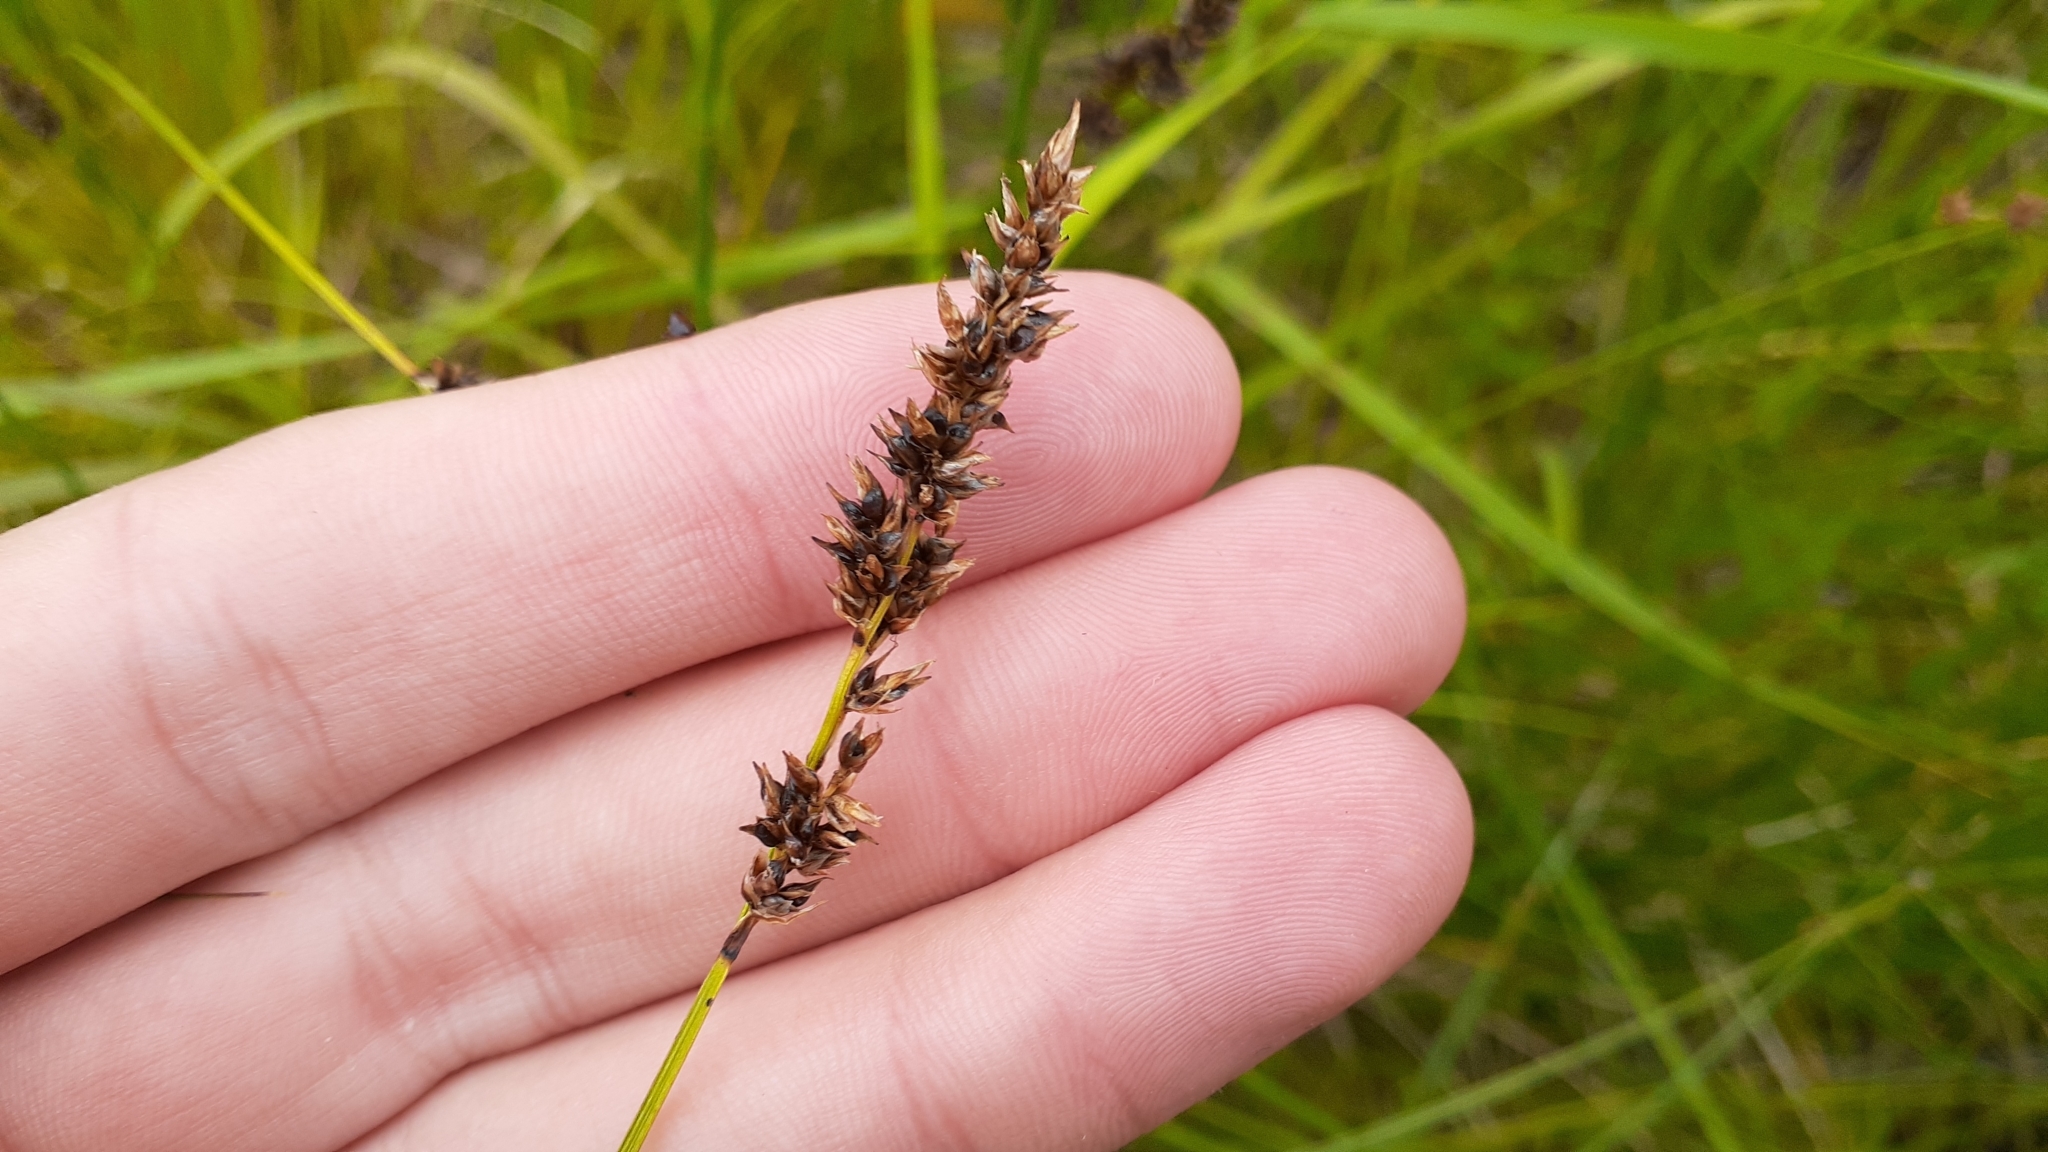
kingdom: Plantae
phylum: Tracheophyta
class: Liliopsida
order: Poales
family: Cyperaceae
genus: Carex
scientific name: Carex diandra
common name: Lesser tussock-sedge
